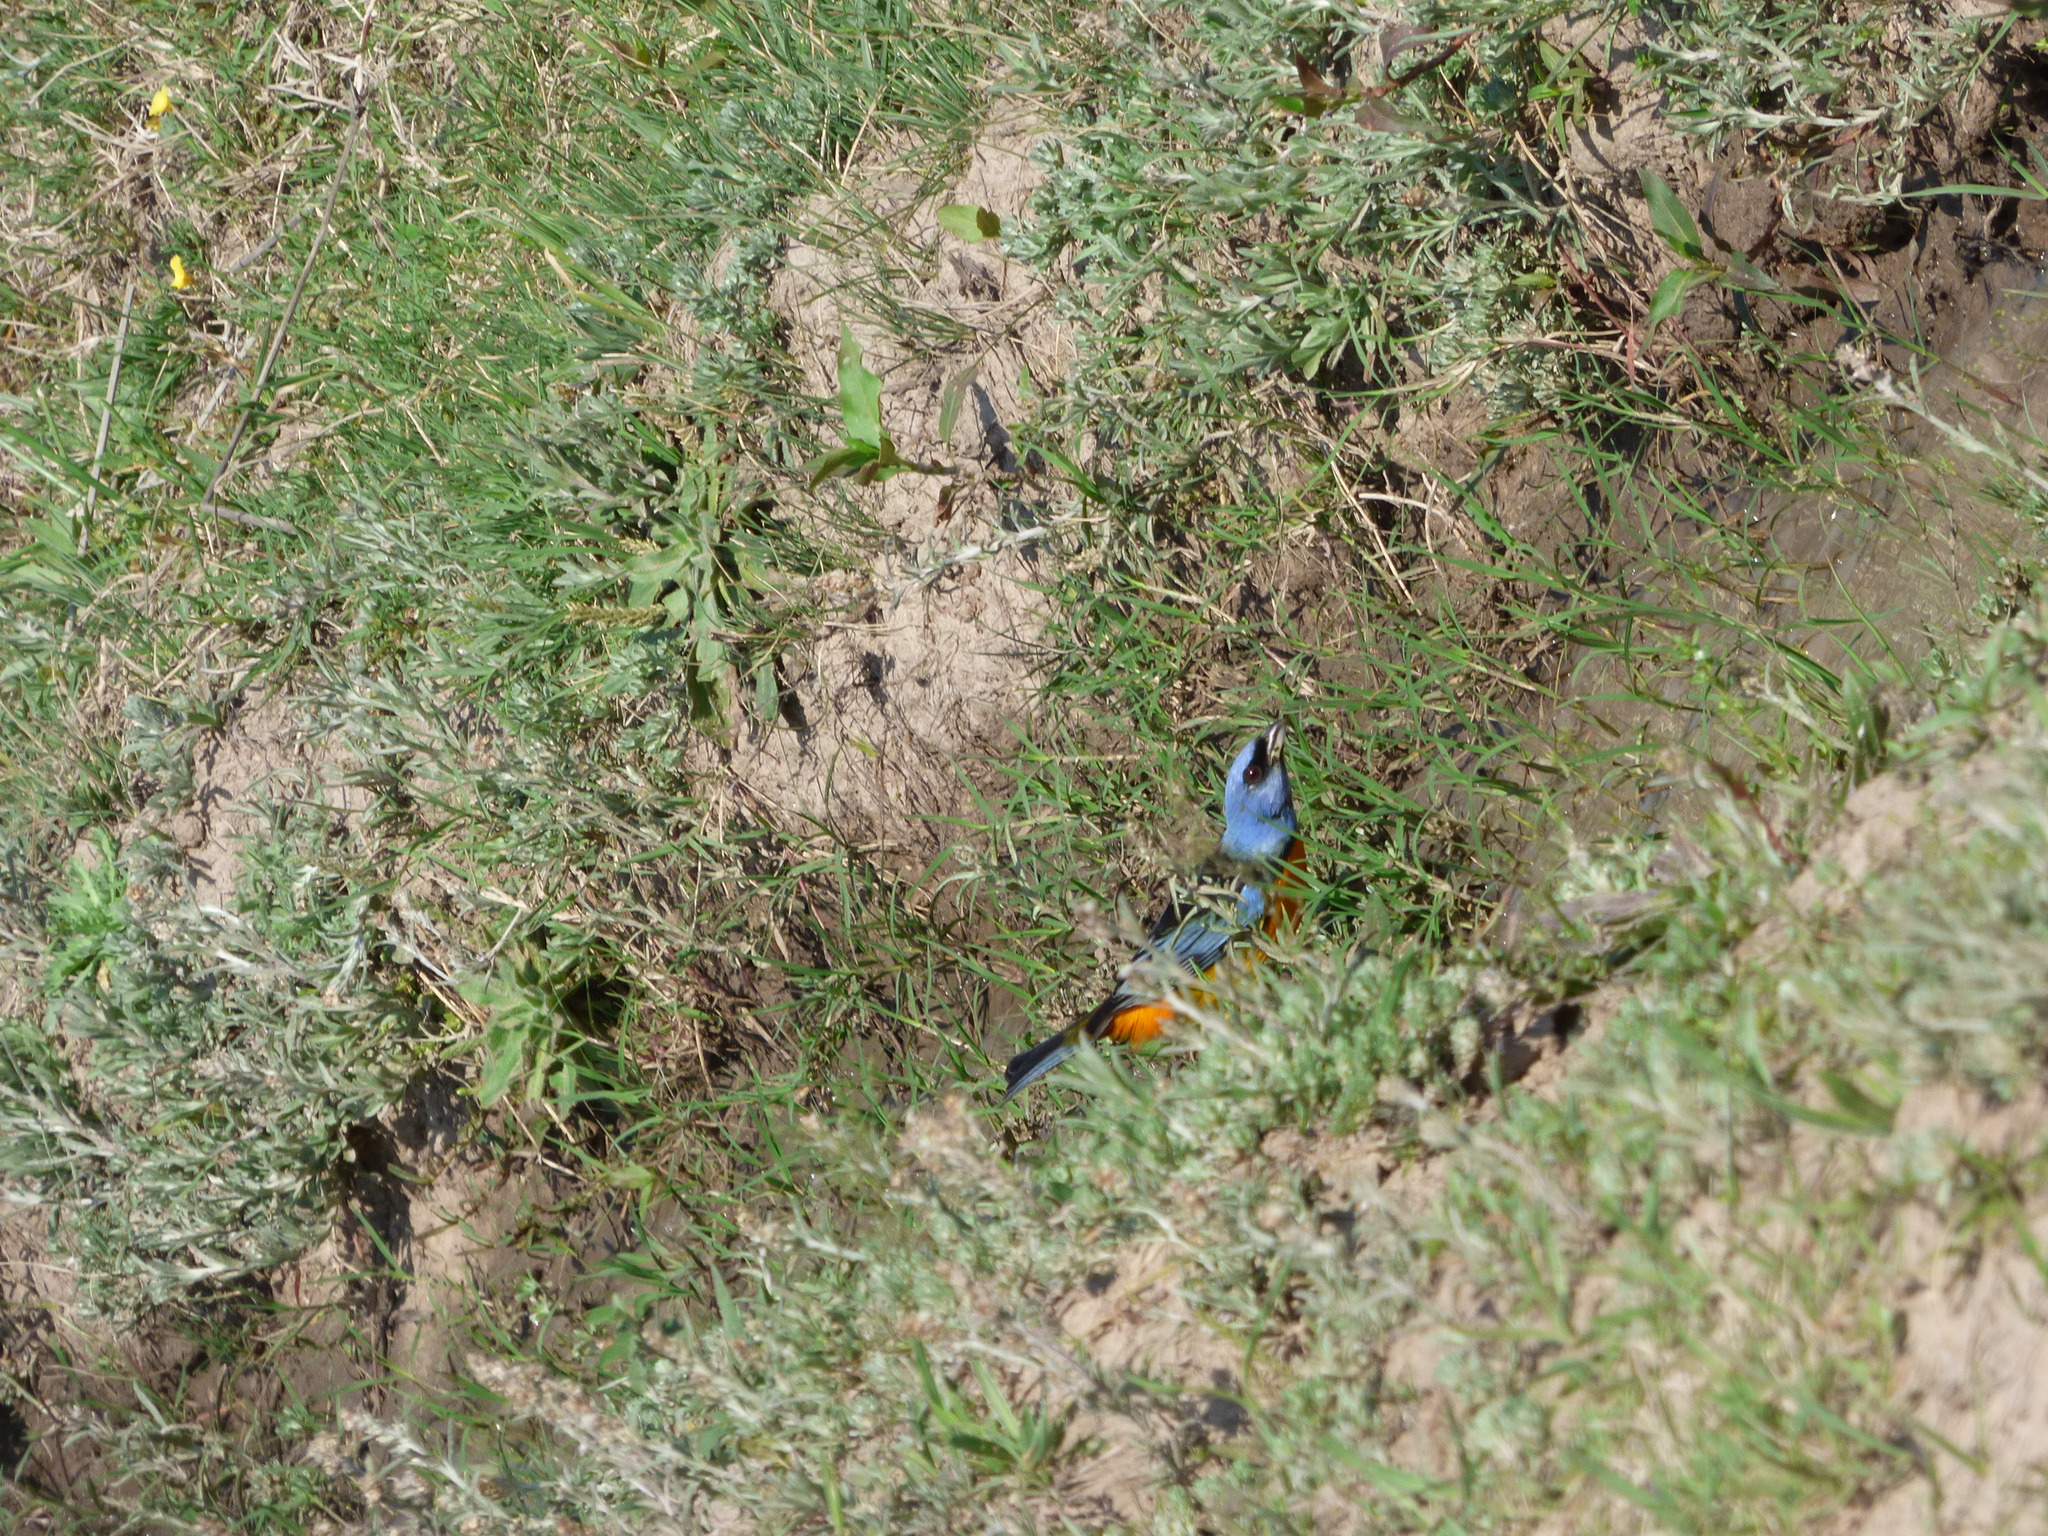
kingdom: Animalia
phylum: Chordata
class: Aves
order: Passeriformes
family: Thraupidae
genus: Rauenia
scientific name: Rauenia bonariensis
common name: Blue-and-yellow tanager
